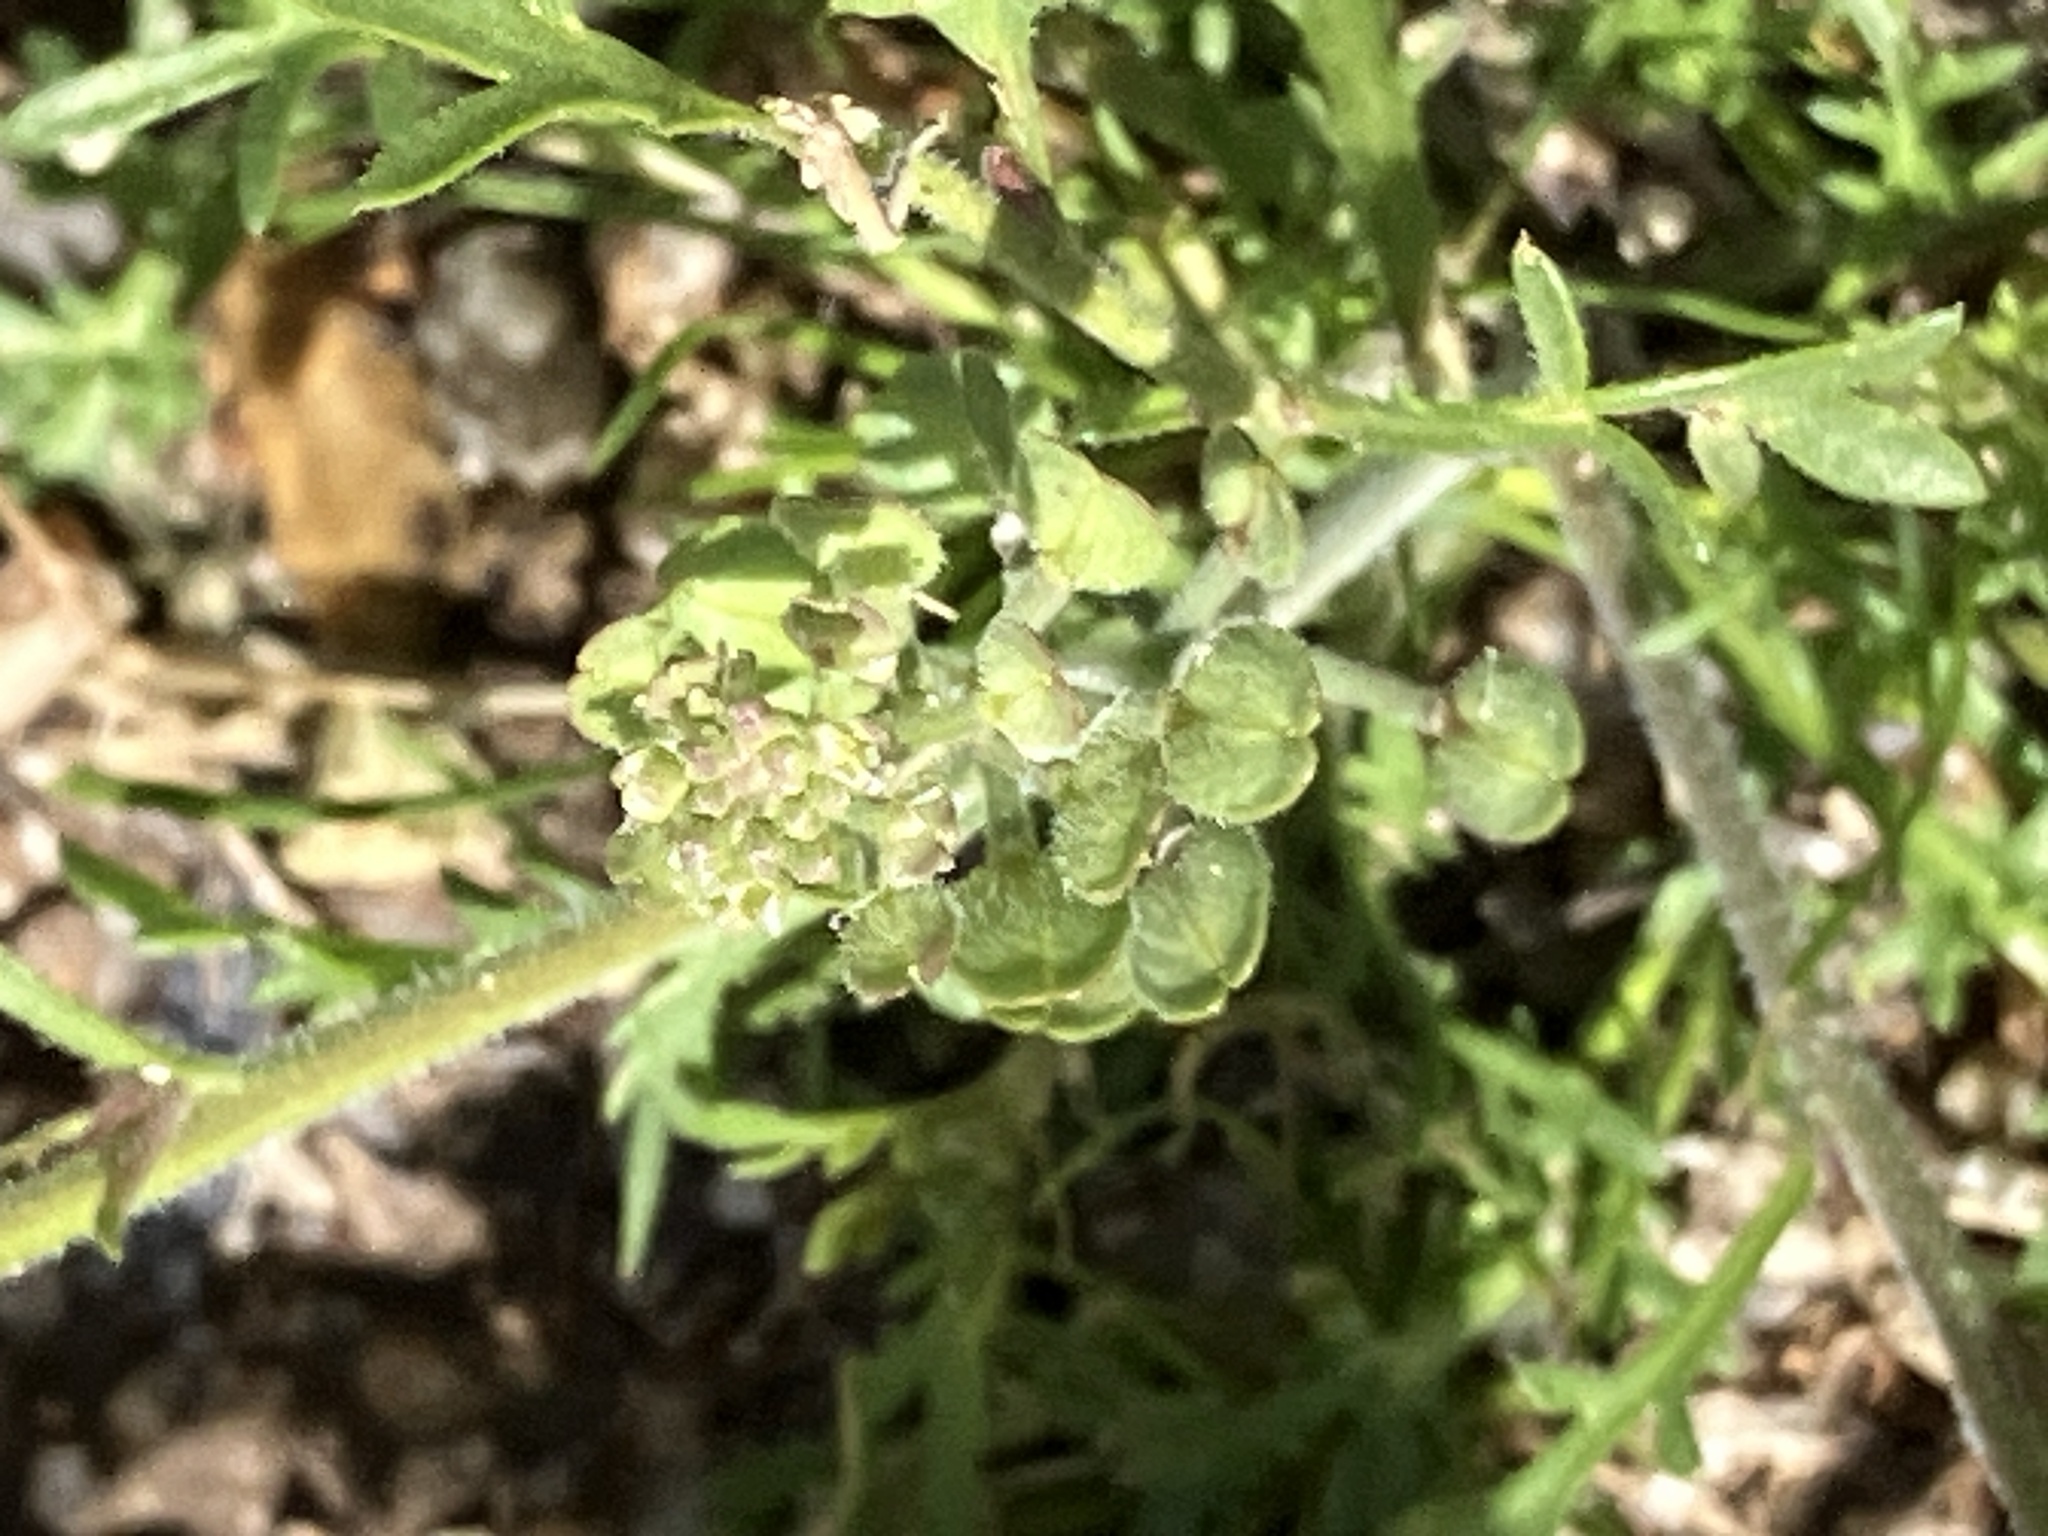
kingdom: Plantae
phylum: Tracheophyta
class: Magnoliopsida
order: Brassicales
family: Brassicaceae
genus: Lepidium
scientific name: Lepidium lasiocarpum
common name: Hairy-pod pepperwort
